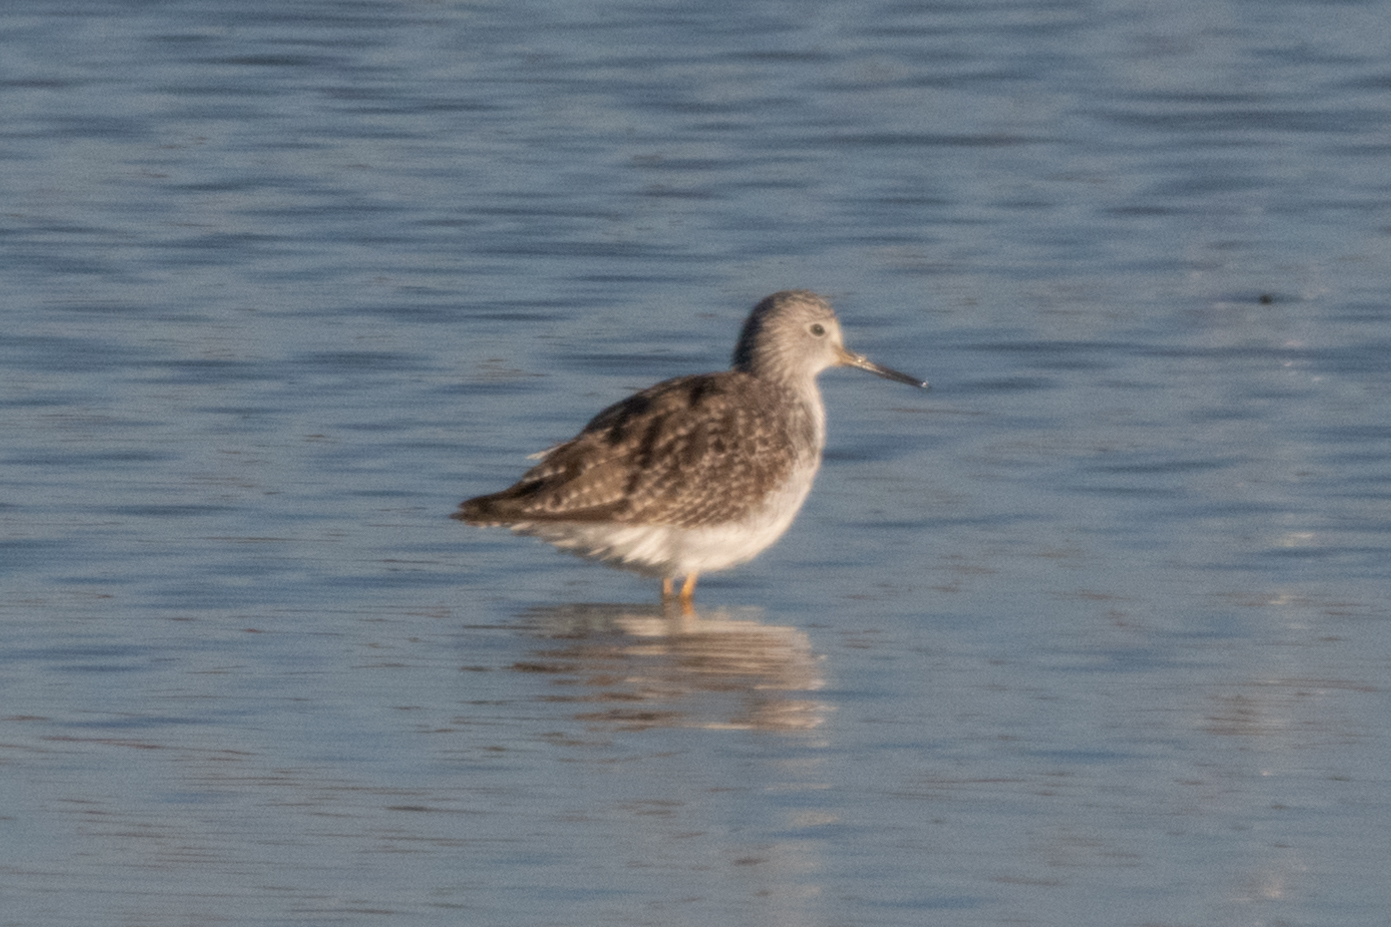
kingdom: Animalia
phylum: Chordata
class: Aves
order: Charadriiformes
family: Scolopacidae
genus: Tringa
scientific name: Tringa melanoleuca
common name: Greater yellowlegs
